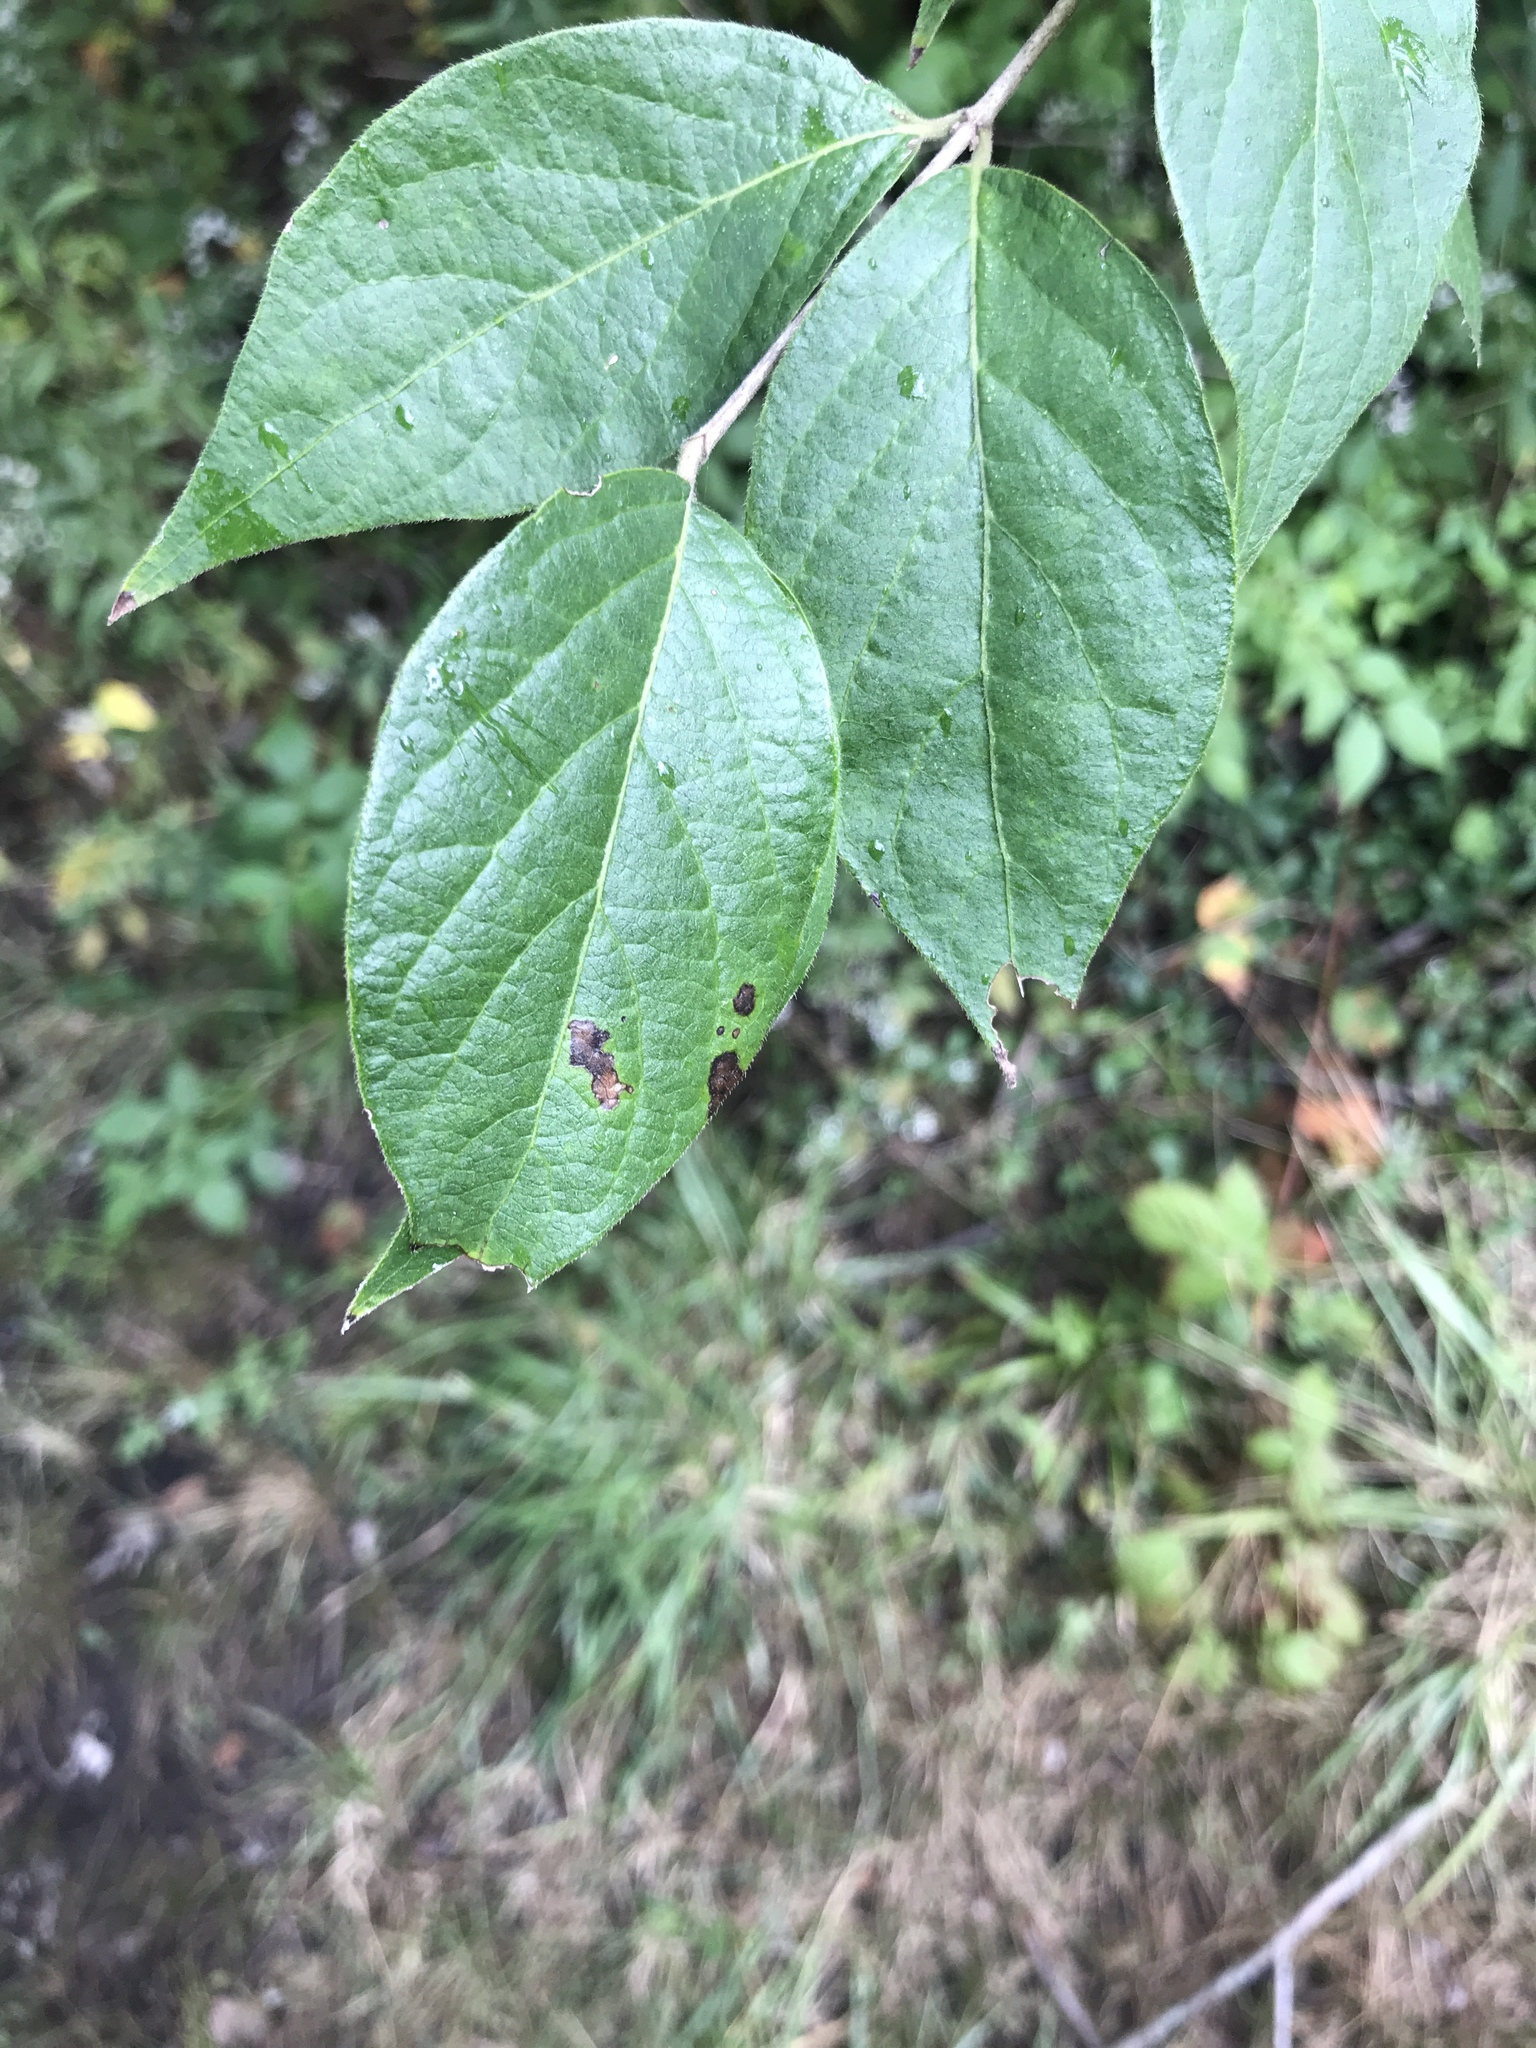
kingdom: Plantae
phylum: Tracheophyta
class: Magnoliopsida
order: Dipsacales
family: Caprifoliaceae
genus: Lonicera
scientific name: Lonicera maackii
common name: Amur honeysuckle
